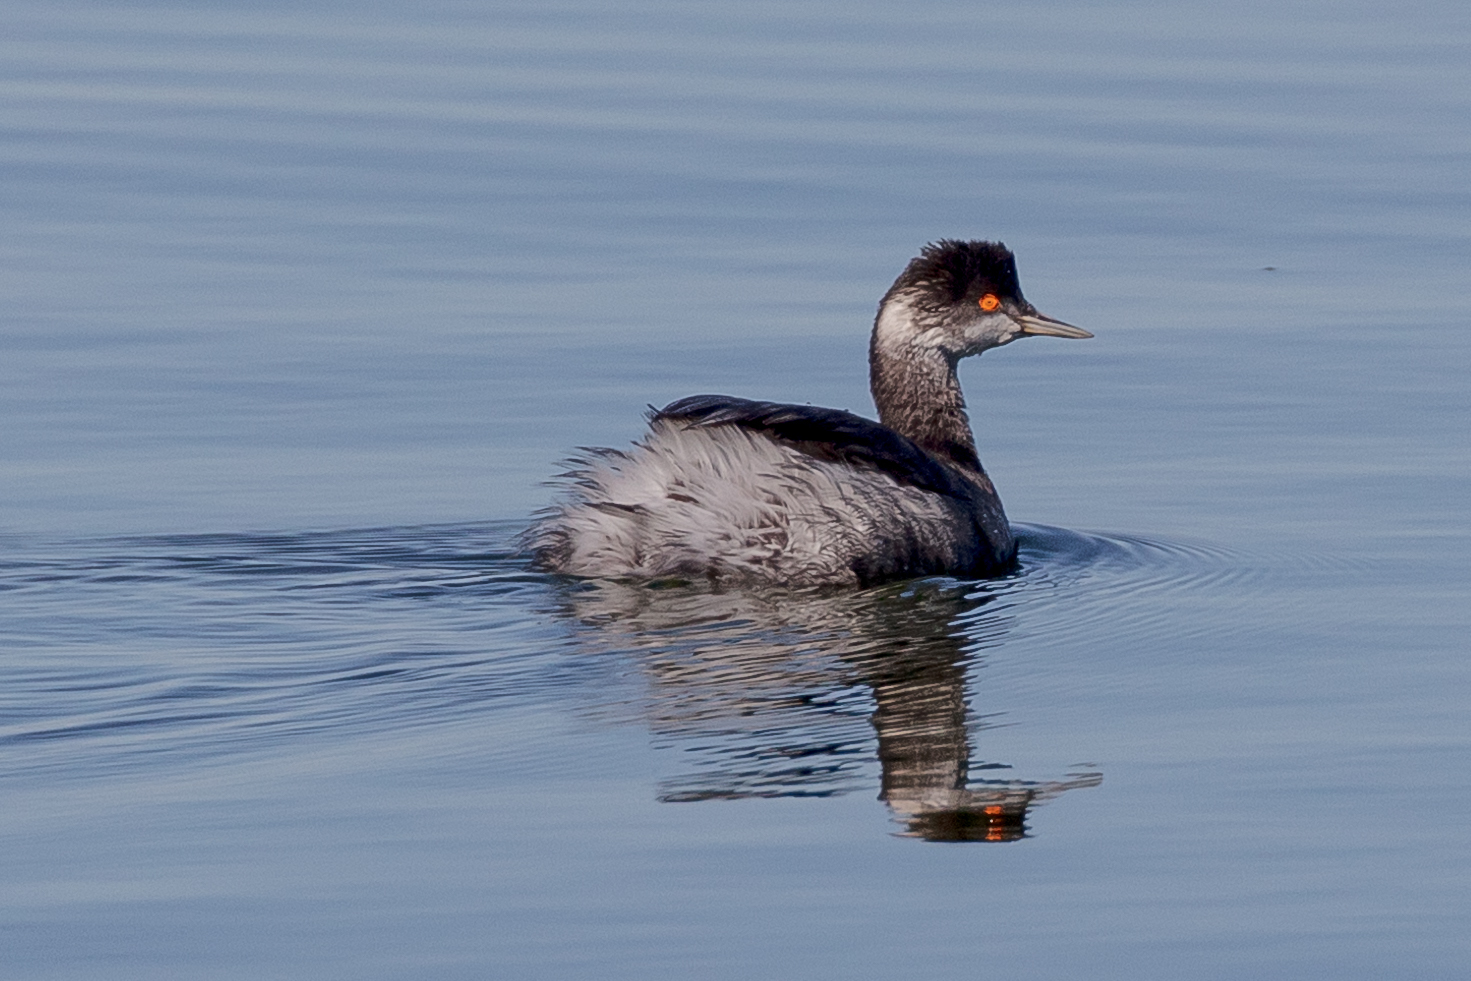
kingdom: Animalia
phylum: Chordata
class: Aves
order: Podicipediformes
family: Podicipedidae
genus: Podiceps
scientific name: Podiceps nigricollis
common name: Black-necked grebe
